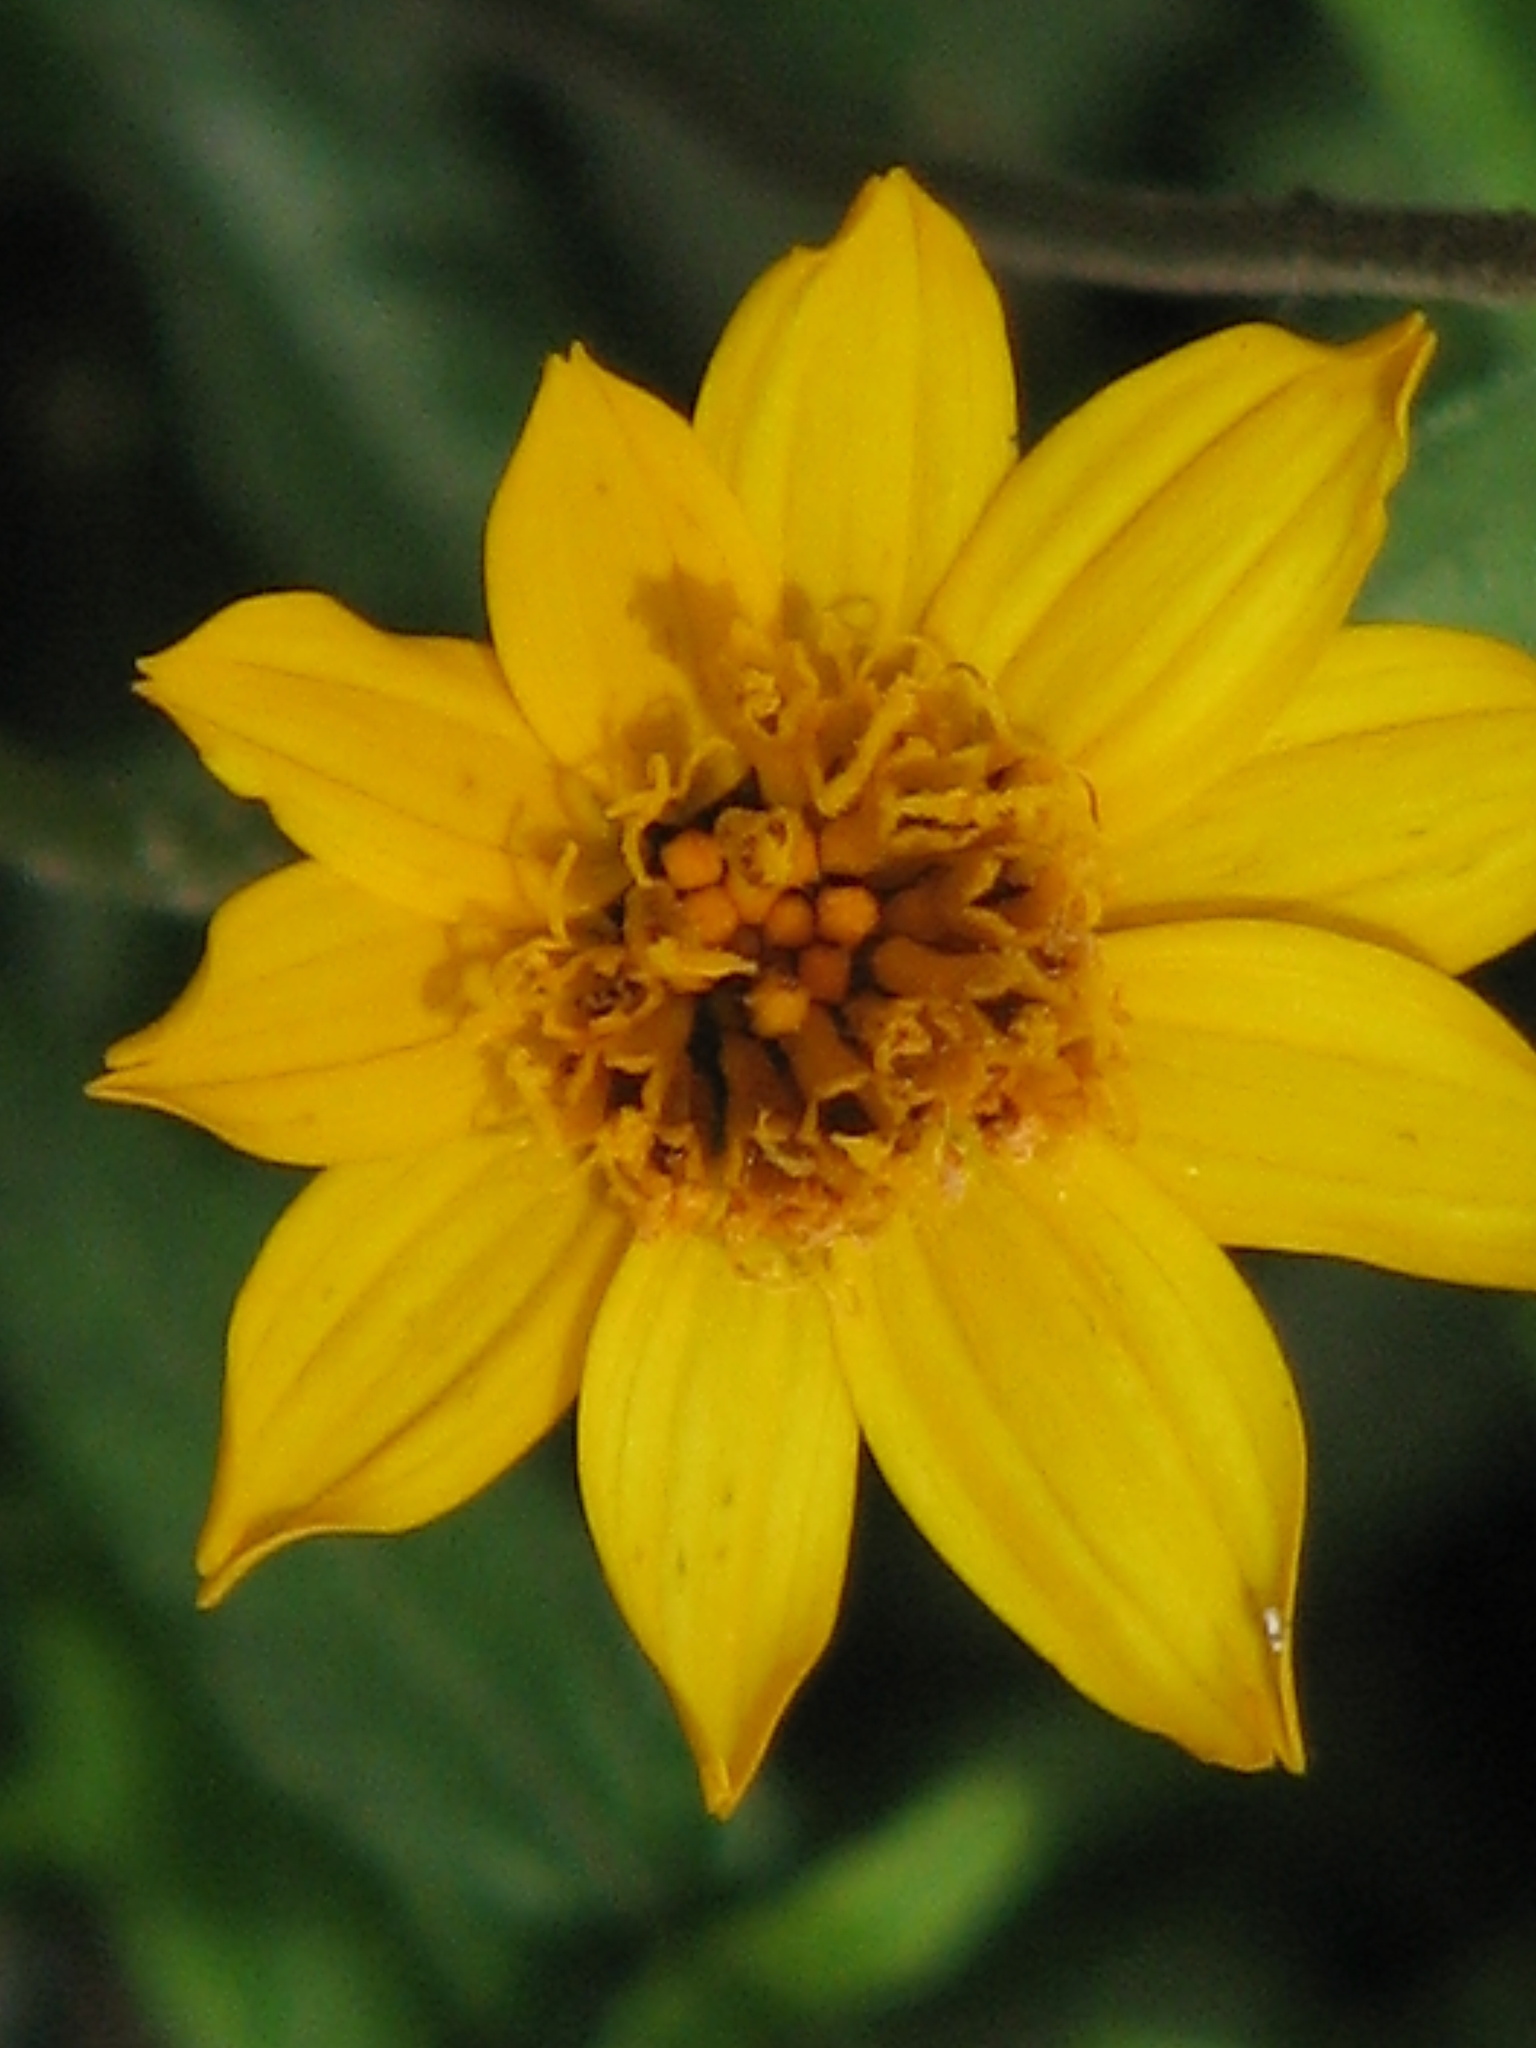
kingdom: Plantae
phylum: Tracheophyta
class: Magnoliopsida
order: Asterales
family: Asteraceae
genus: Wedelia
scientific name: Wedelia acapulcensis
